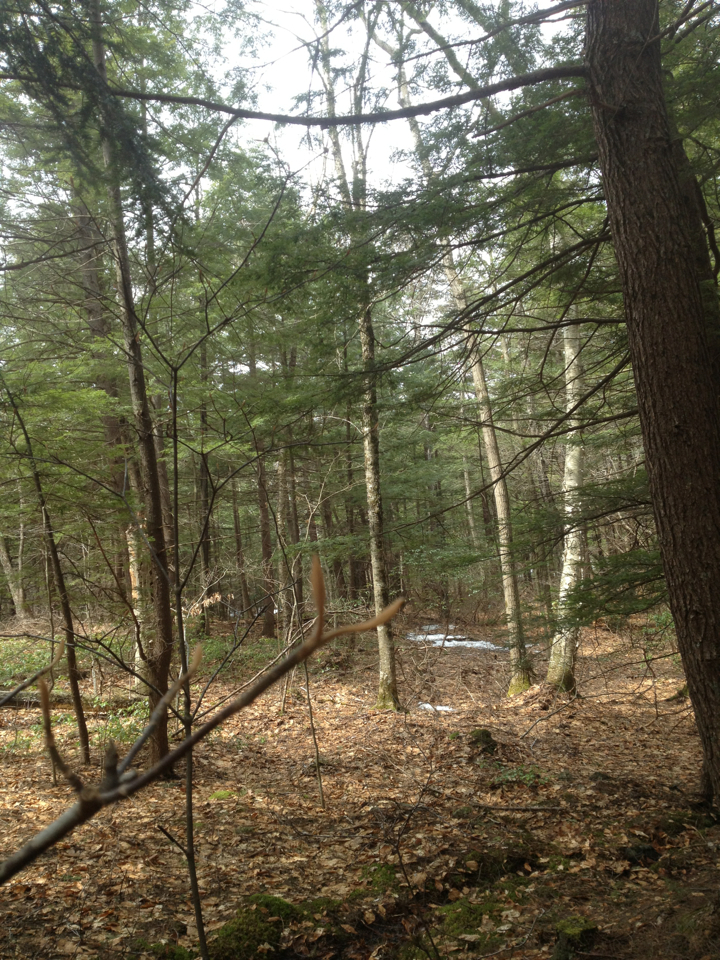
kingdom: Plantae
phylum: Tracheophyta
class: Magnoliopsida
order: Dipsacales
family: Viburnaceae
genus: Viburnum
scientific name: Viburnum lantanoides
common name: Hobblebush
